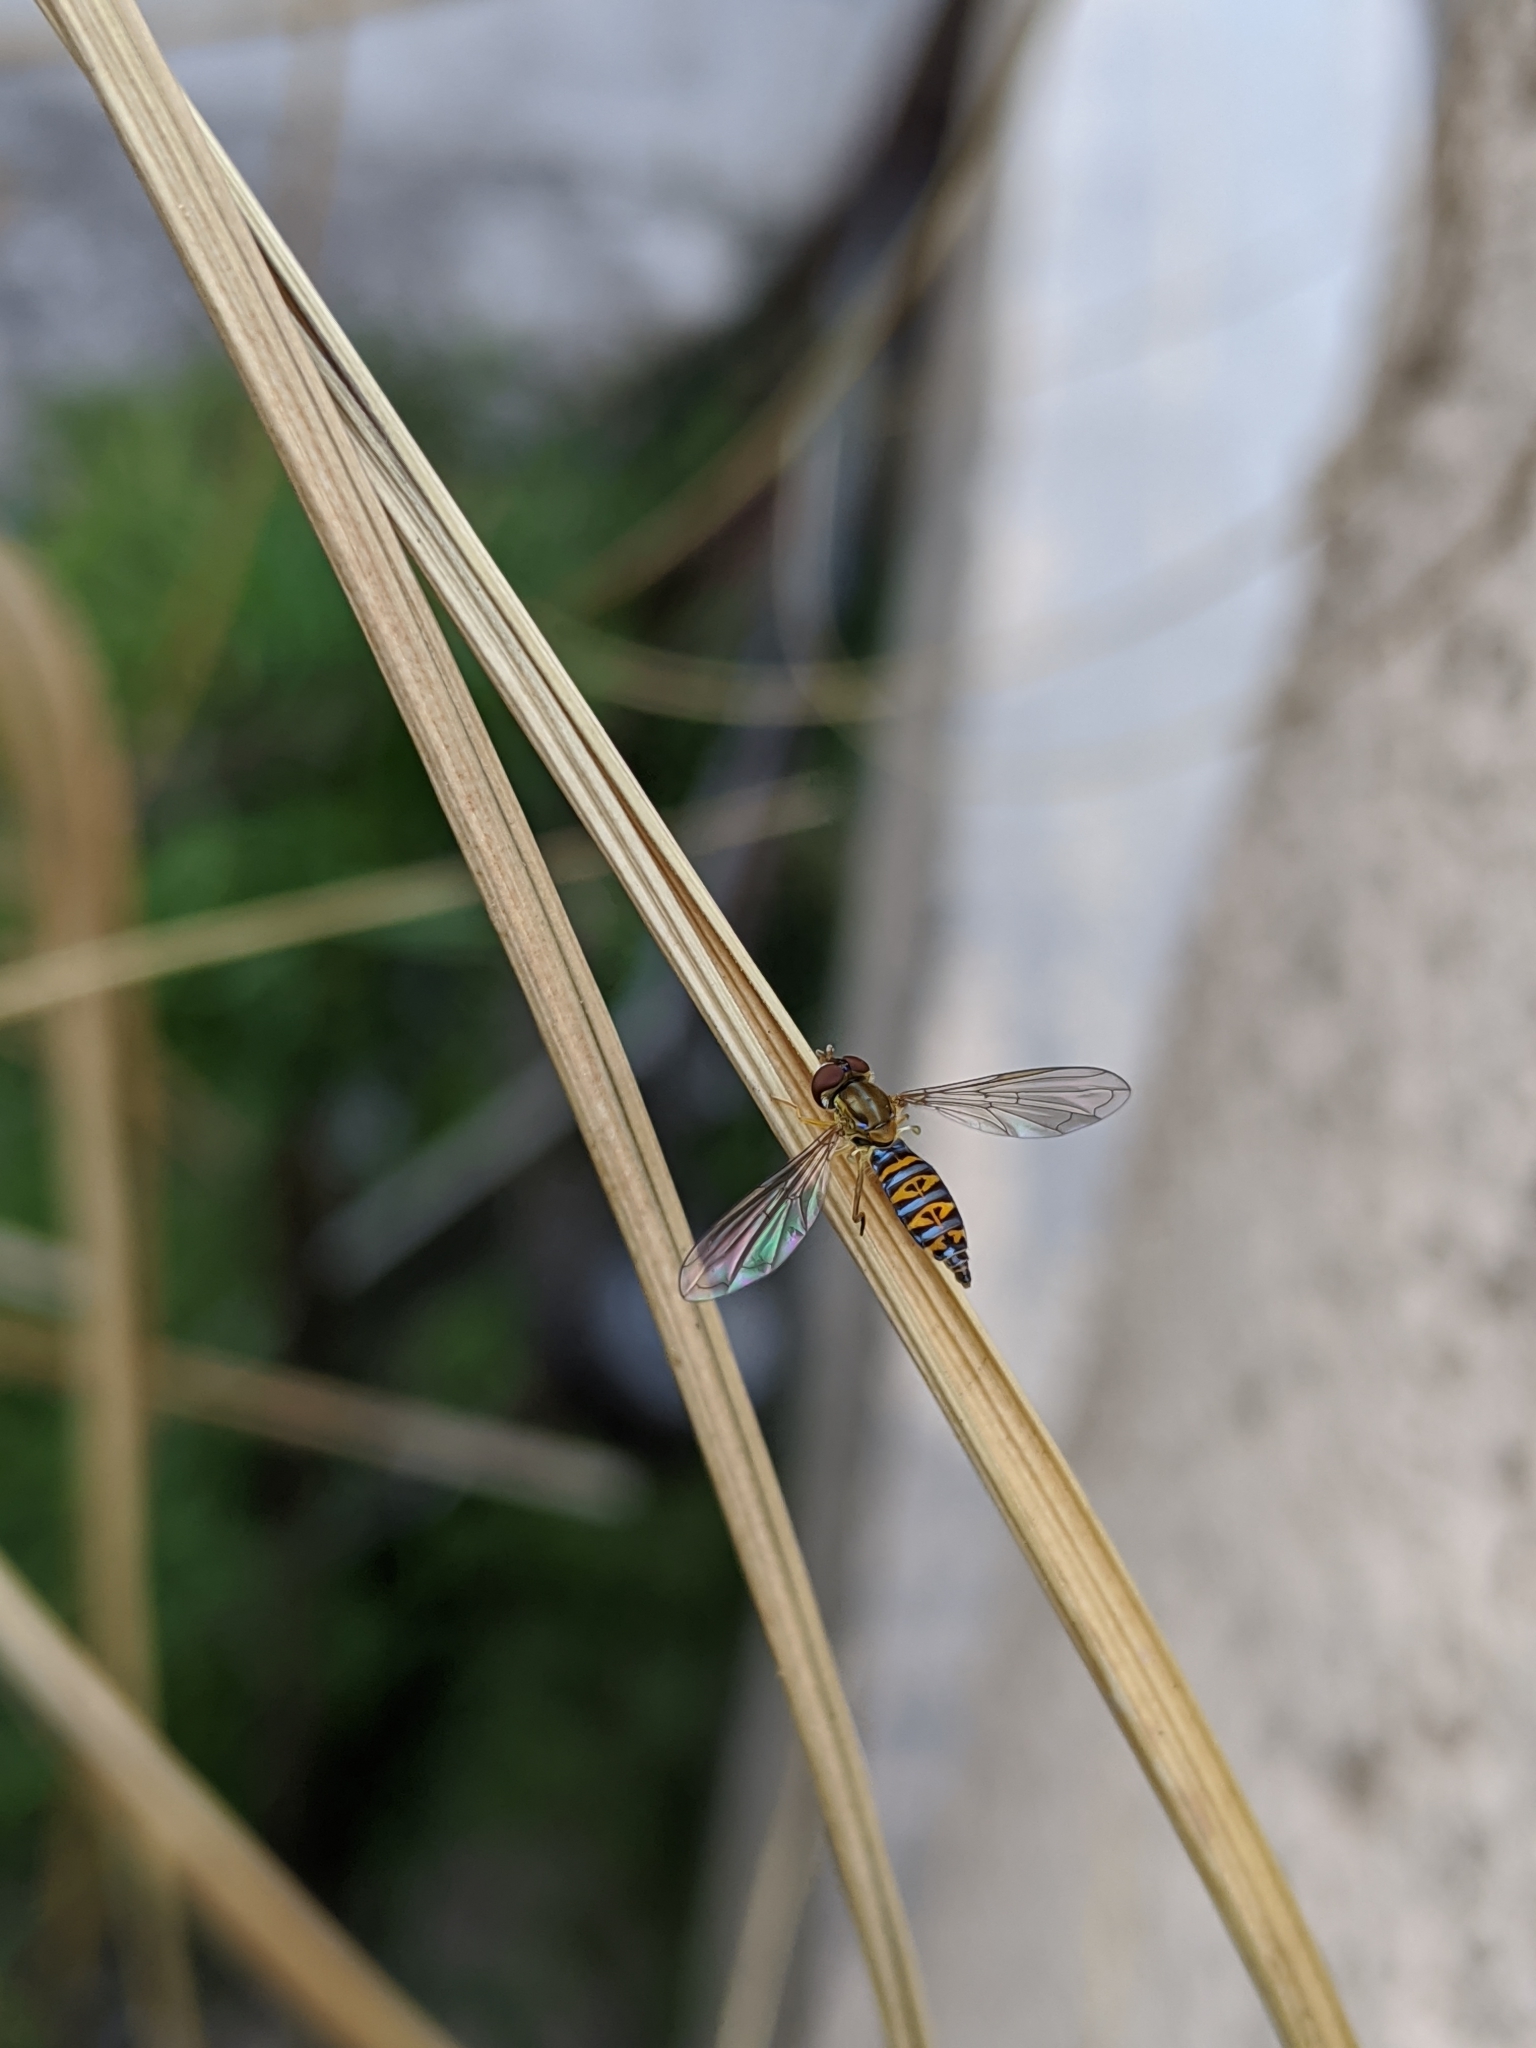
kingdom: Animalia
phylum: Arthropoda
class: Insecta
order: Diptera
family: Syrphidae
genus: Toxomerus
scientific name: Toxomerus mutuus
